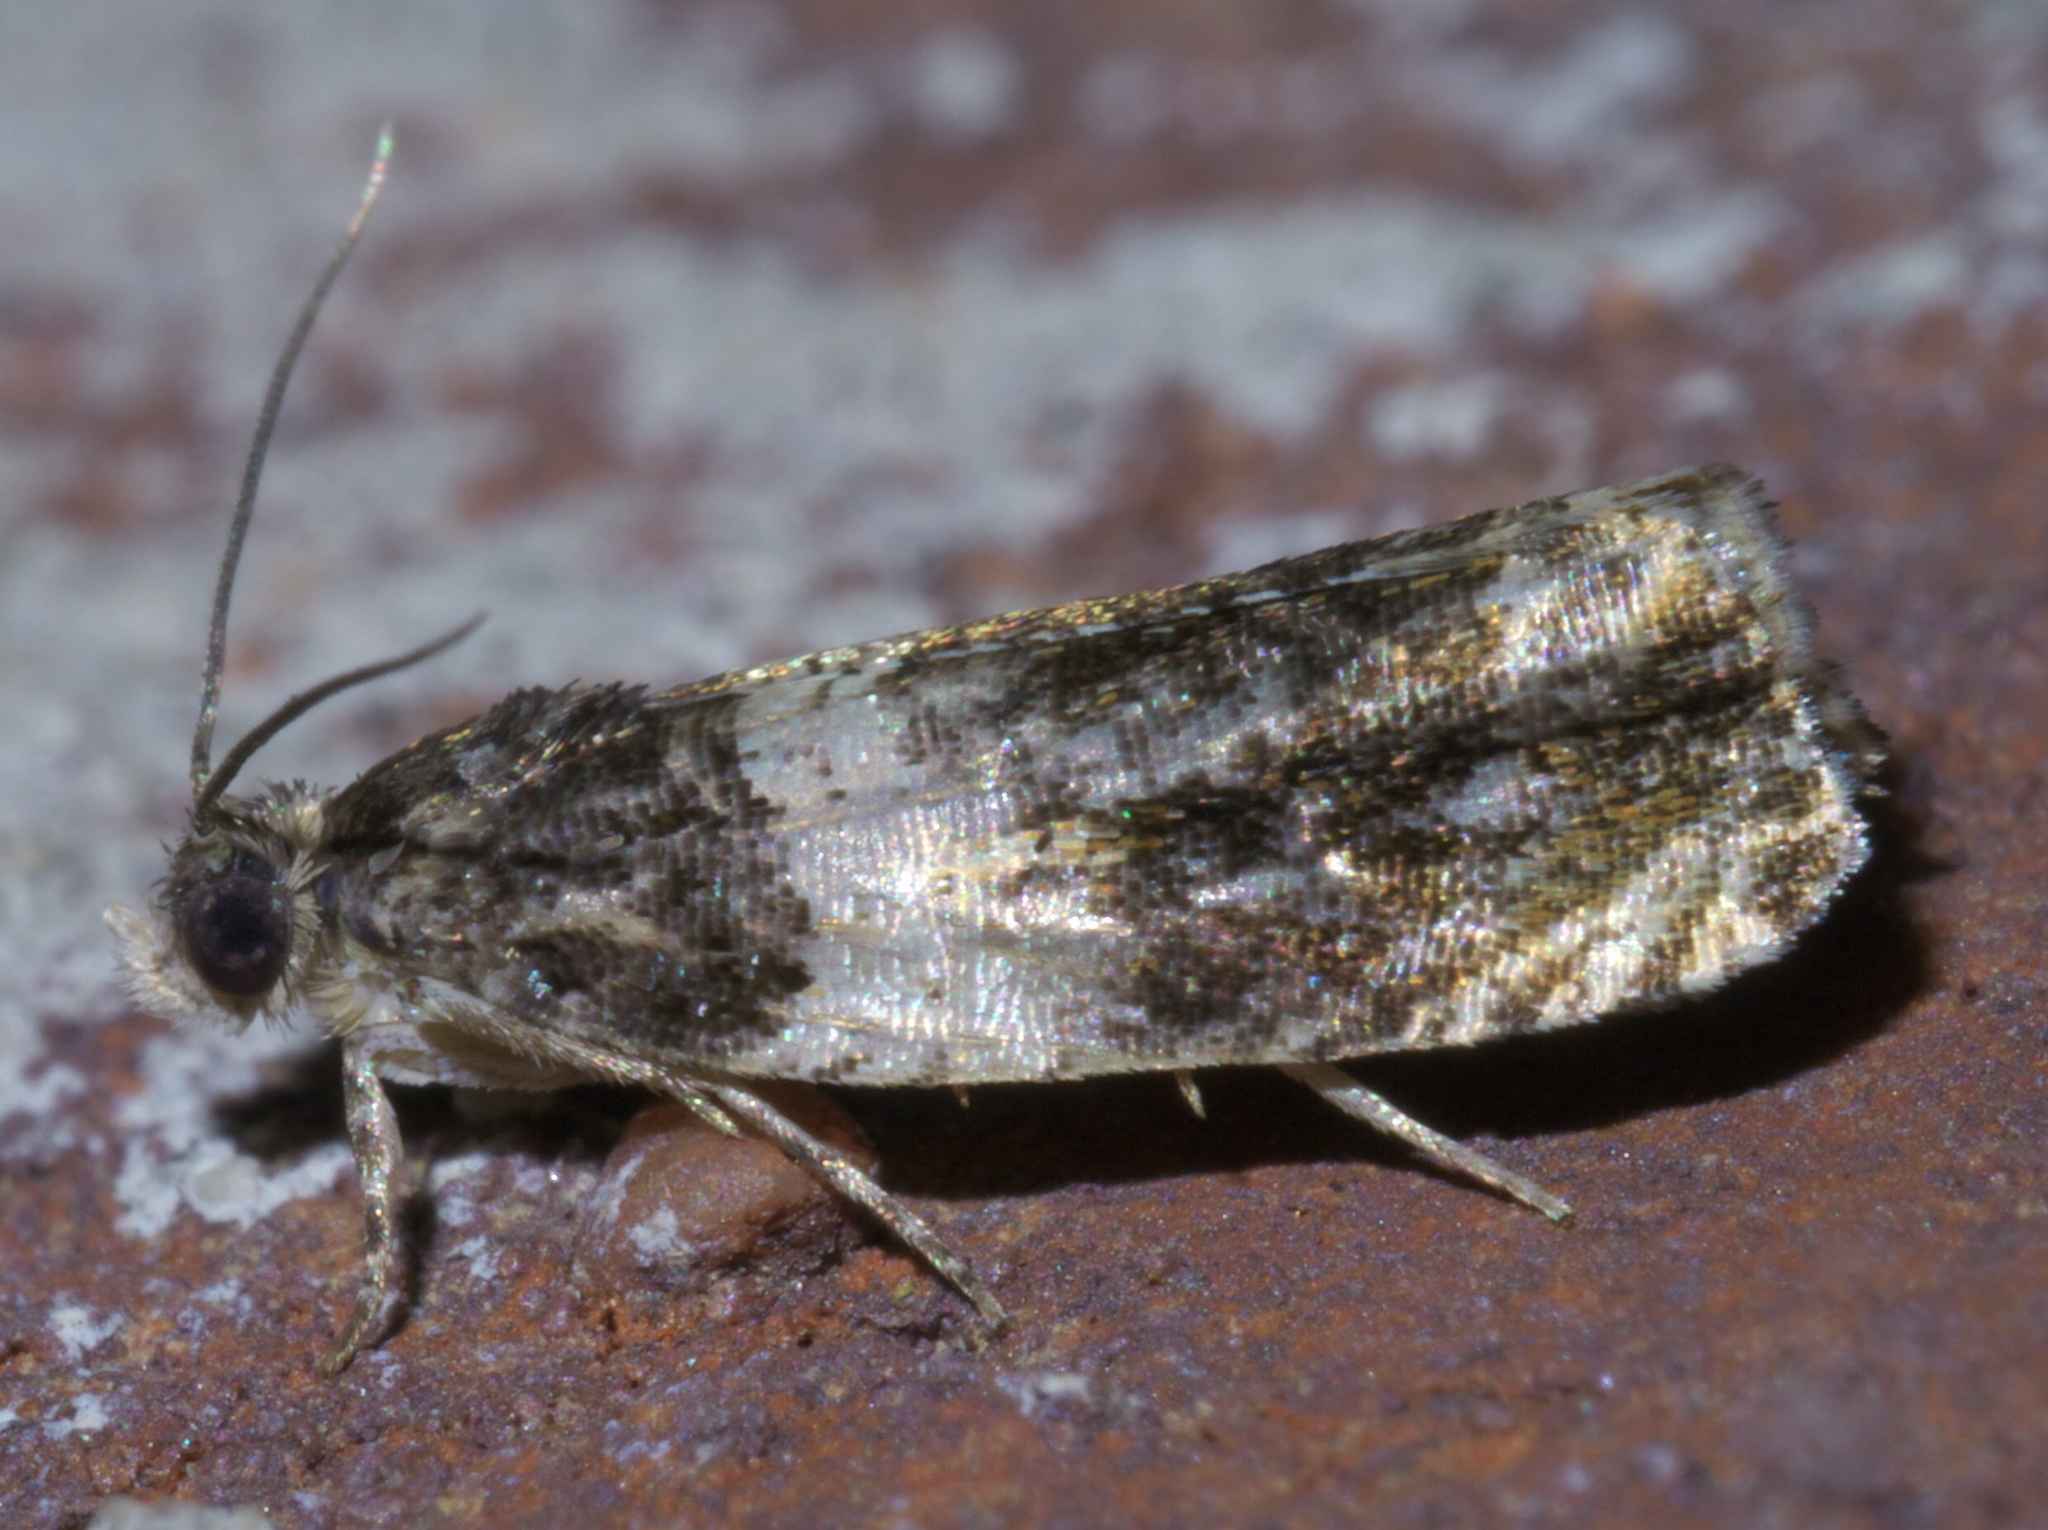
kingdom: Animalia
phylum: Arthropoda
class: Insecta
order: Lepidoptera
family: Tortricidae
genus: Olethreutes
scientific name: Olethreutes fasciatana
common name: Banded olethreutes moth
